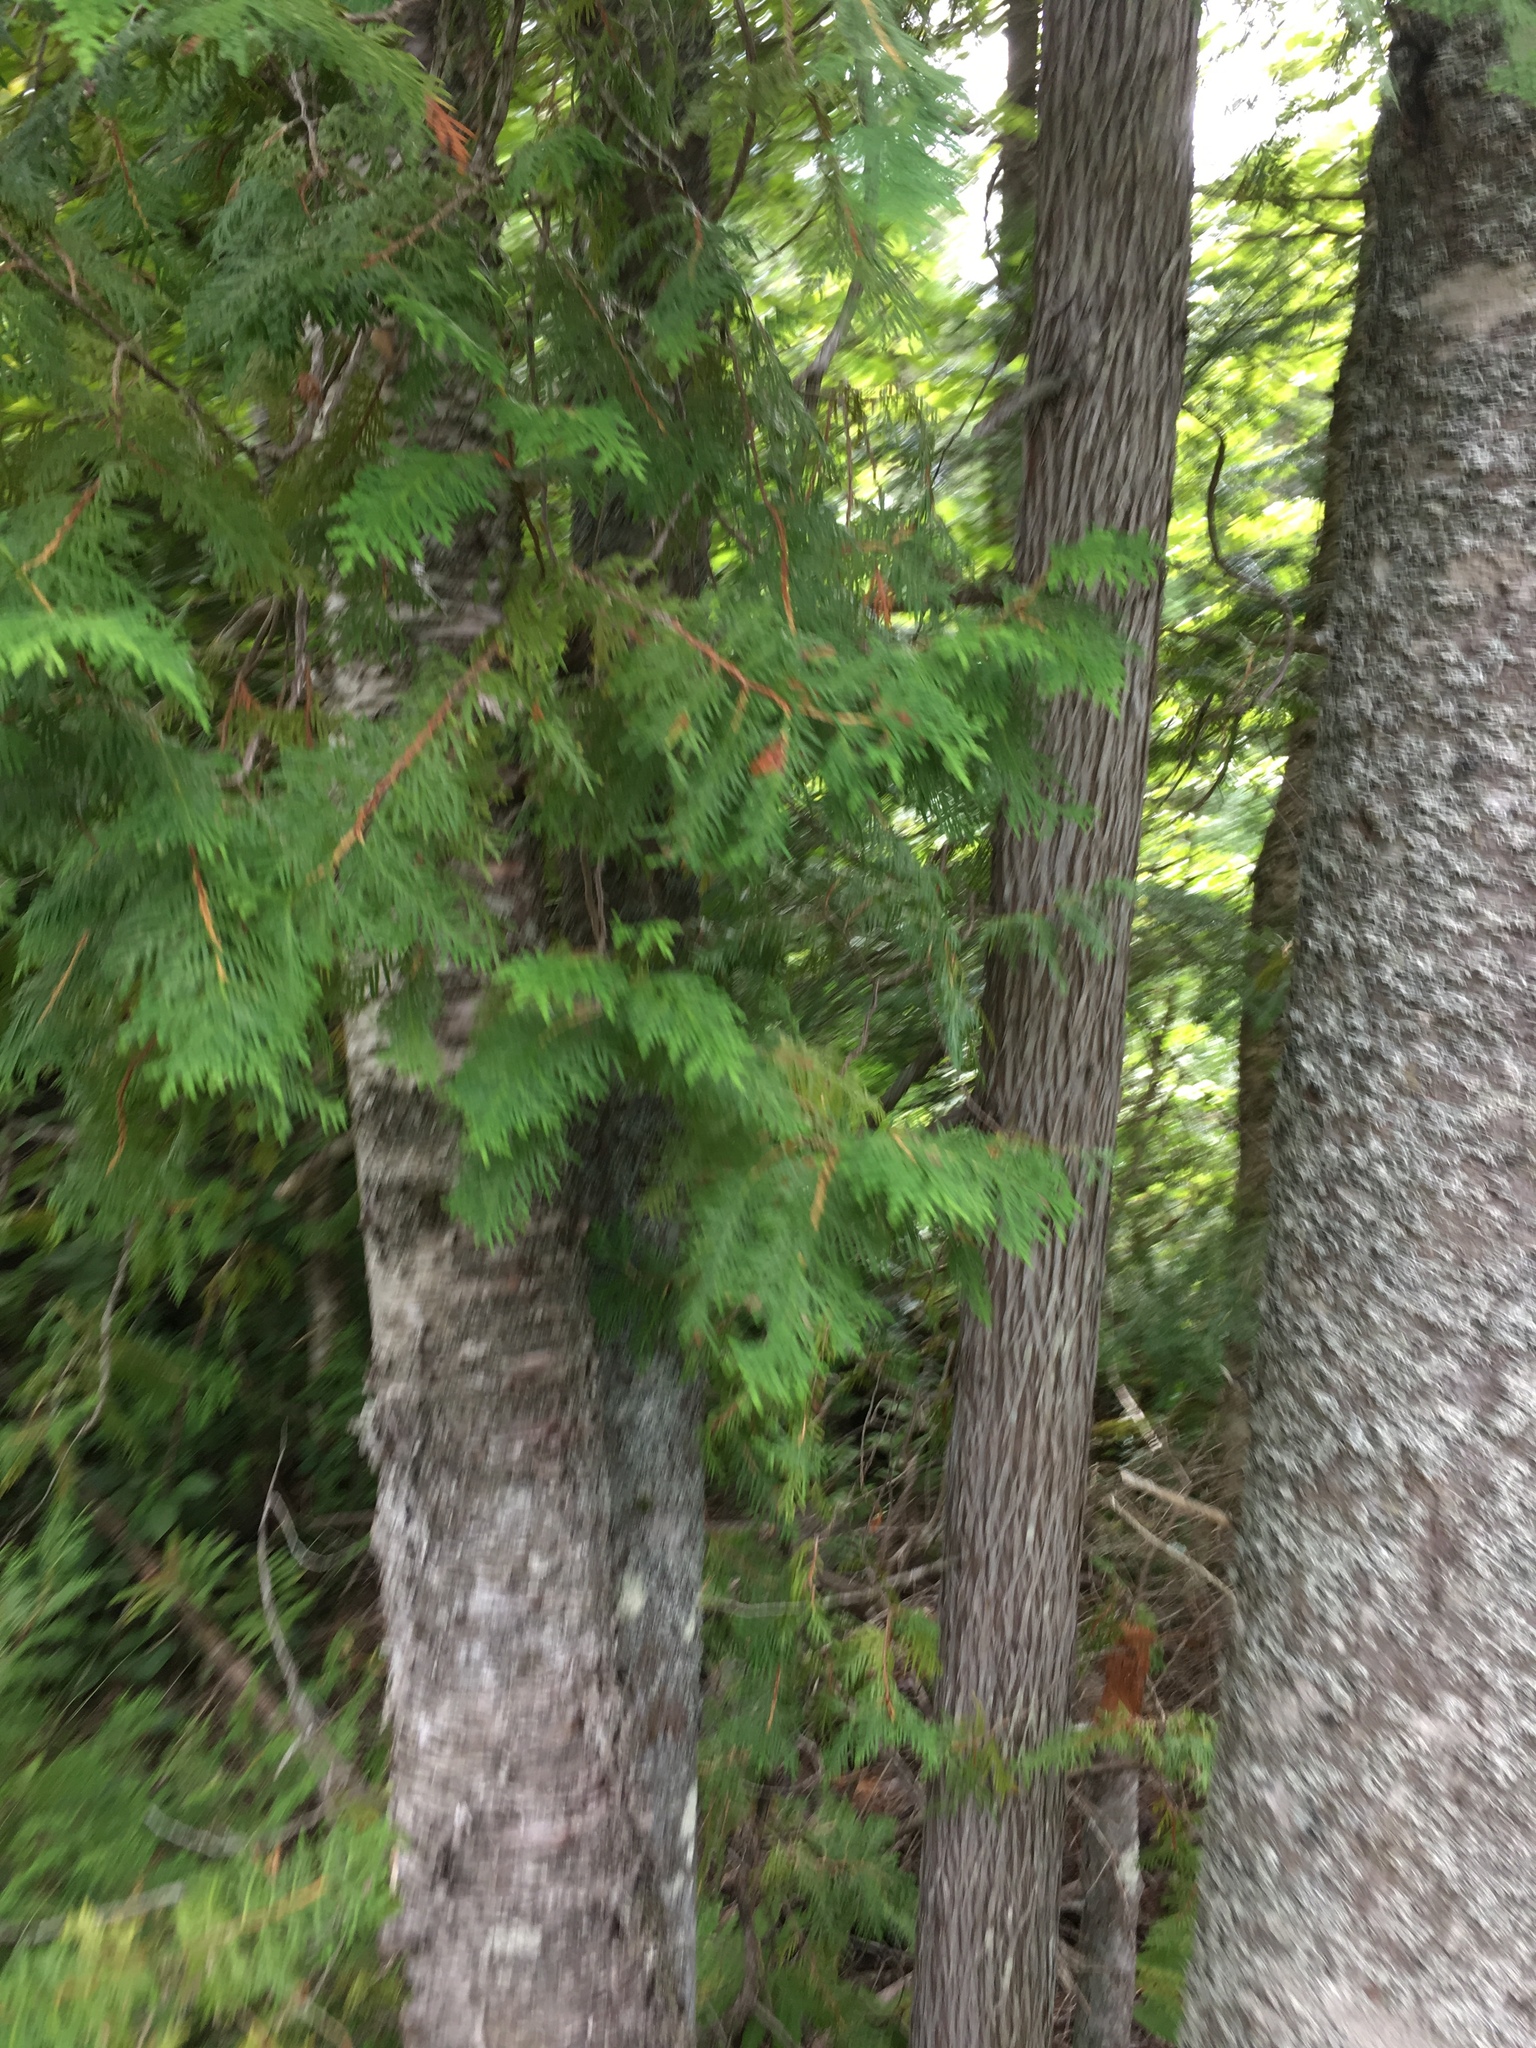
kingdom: Plantae
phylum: Tracheophyta
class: Pinopsida
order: Pinales
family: Cupressaceae
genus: Thuja
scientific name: Thuja occidentalis
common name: Northern white-cedar
